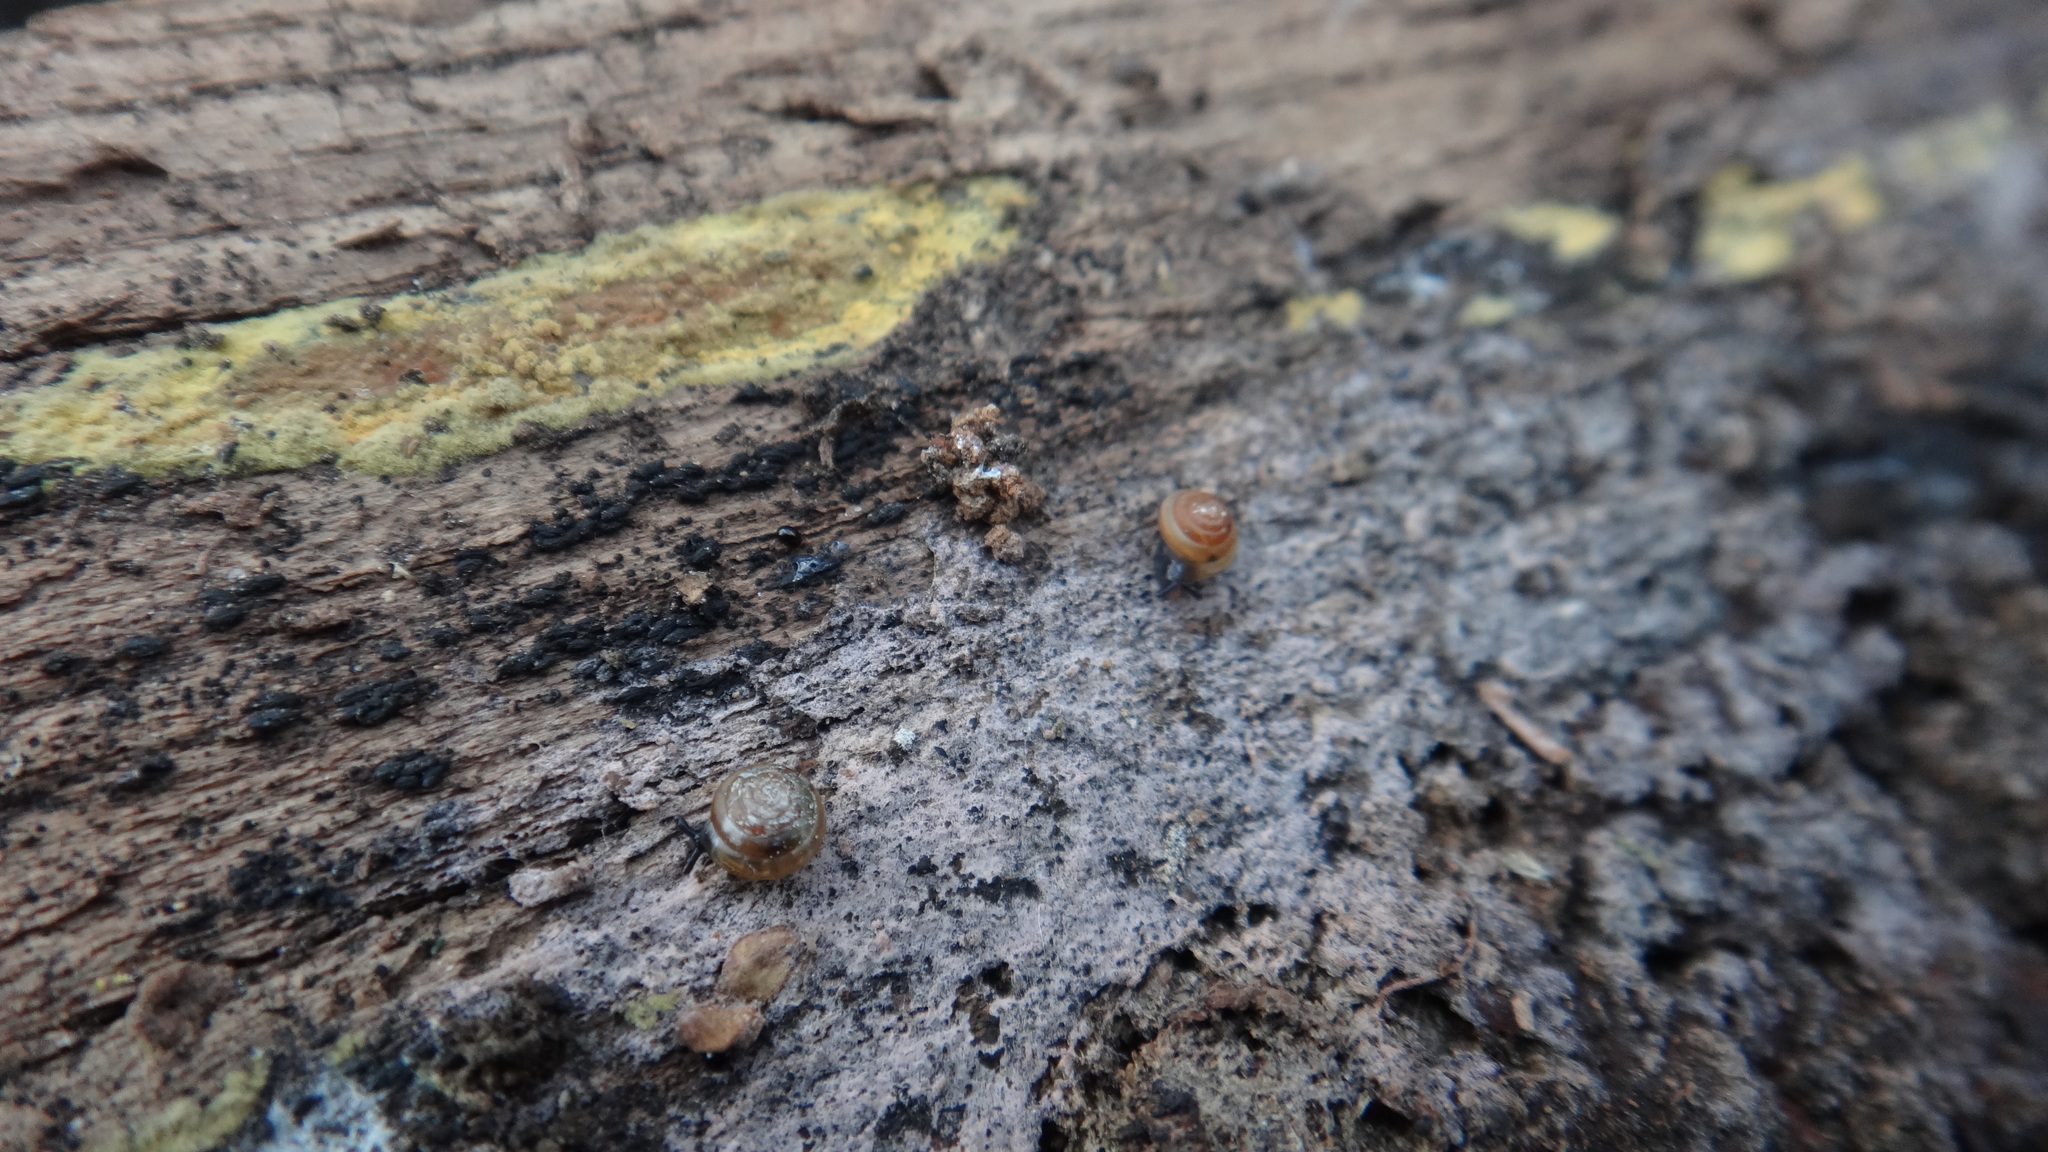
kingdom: Animalia
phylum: Mollusca
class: Gastropoda
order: Stylommatophora
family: Euconulidae
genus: Euconulus
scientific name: Euconulus fulvus
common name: Tawny glass snail
